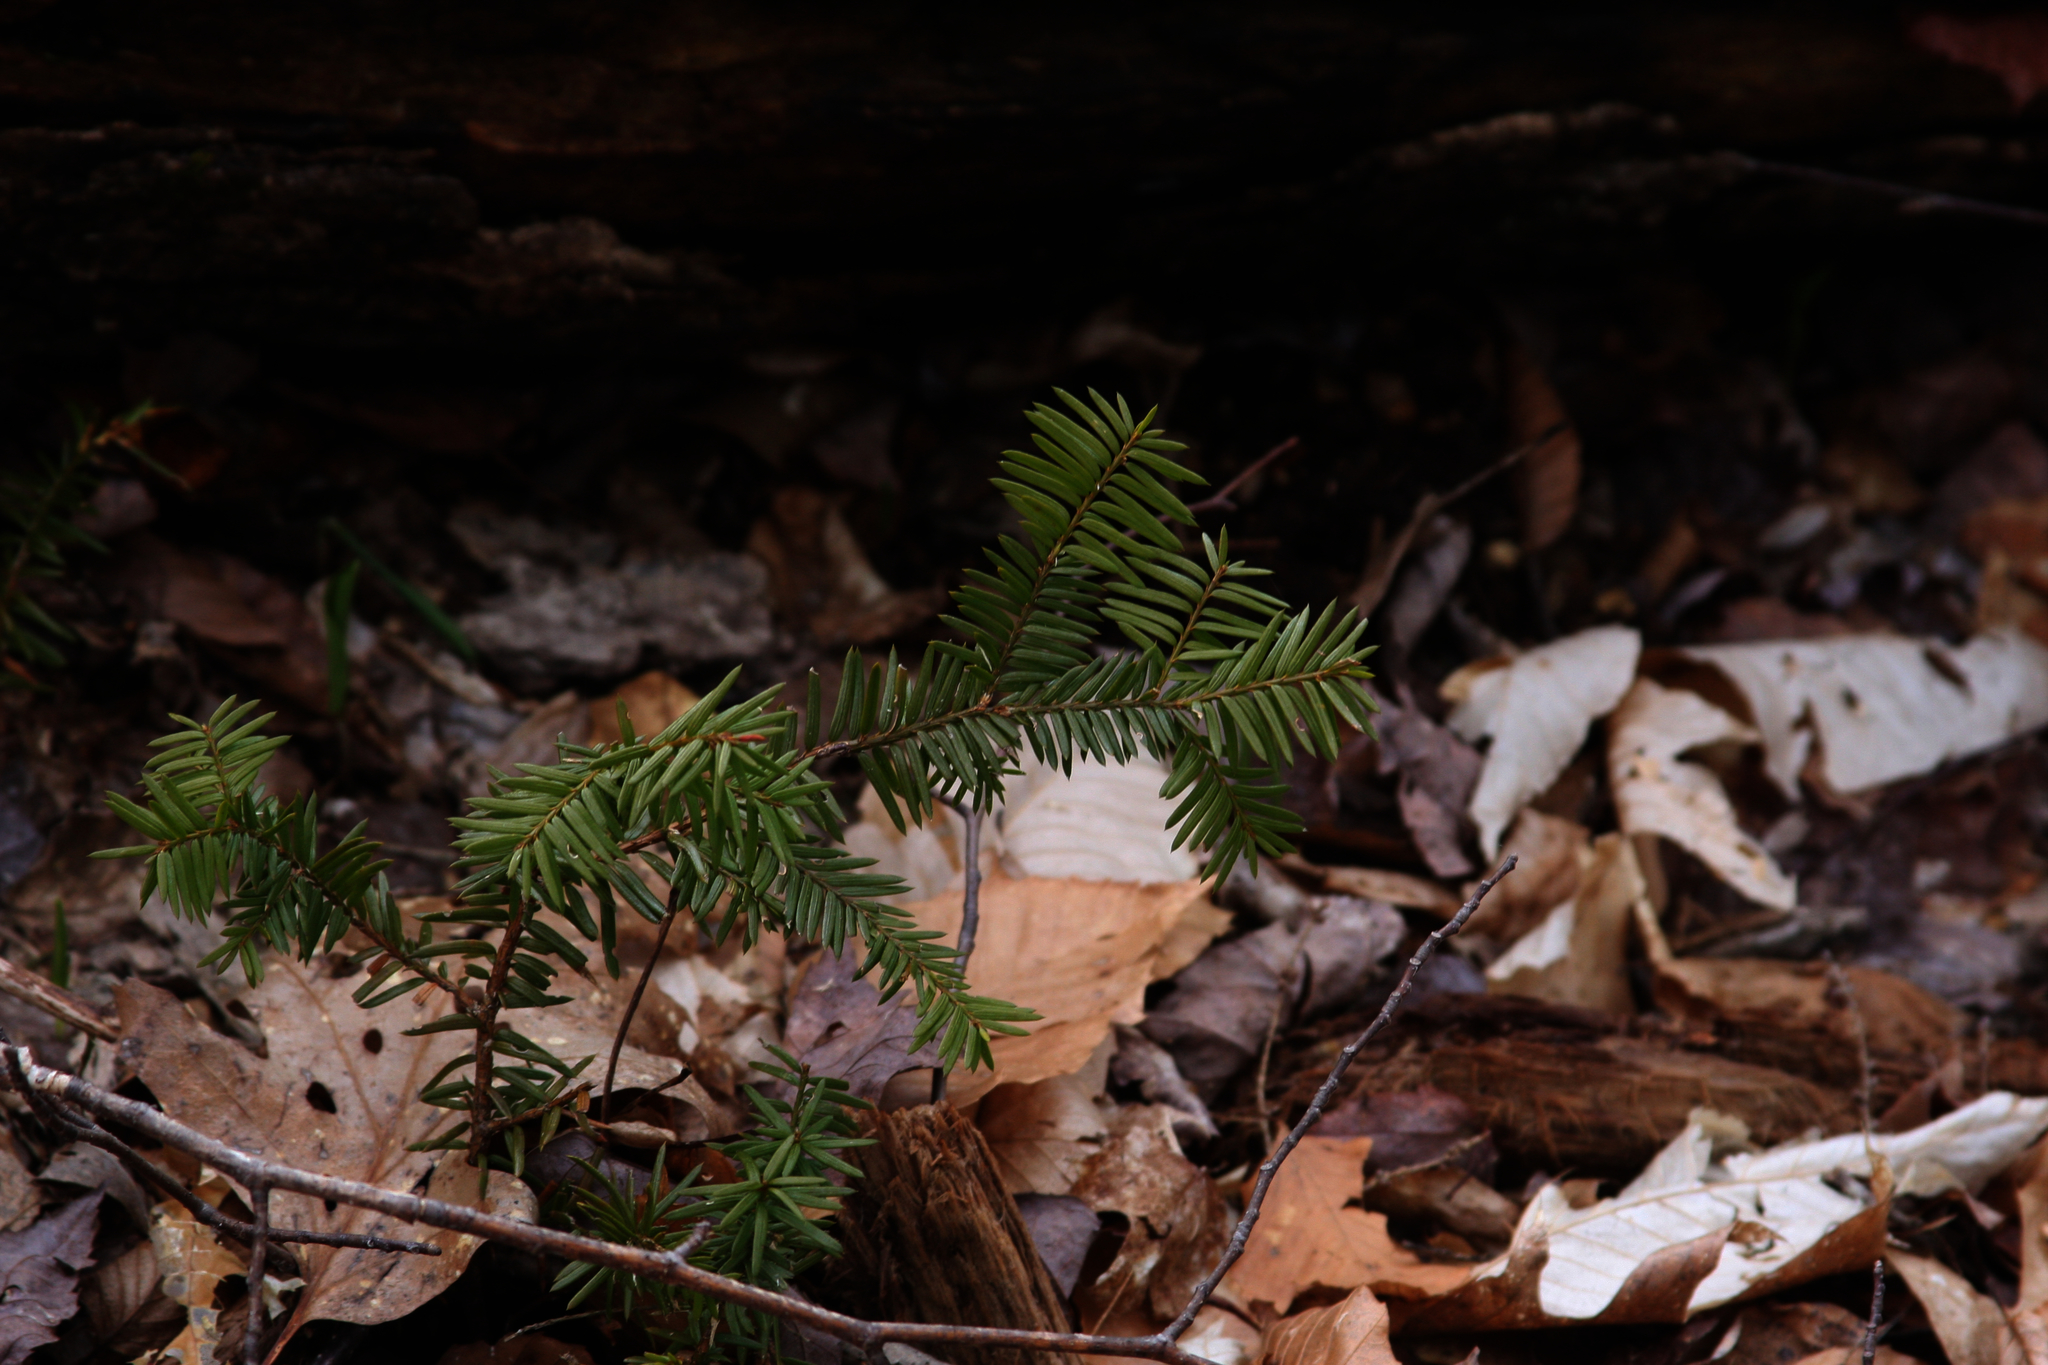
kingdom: Plantae
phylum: Tracheophyta
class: Pinopsida
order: Pinales
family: Taxaceae
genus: Taxus
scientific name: Taxus canadensis
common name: American yew
